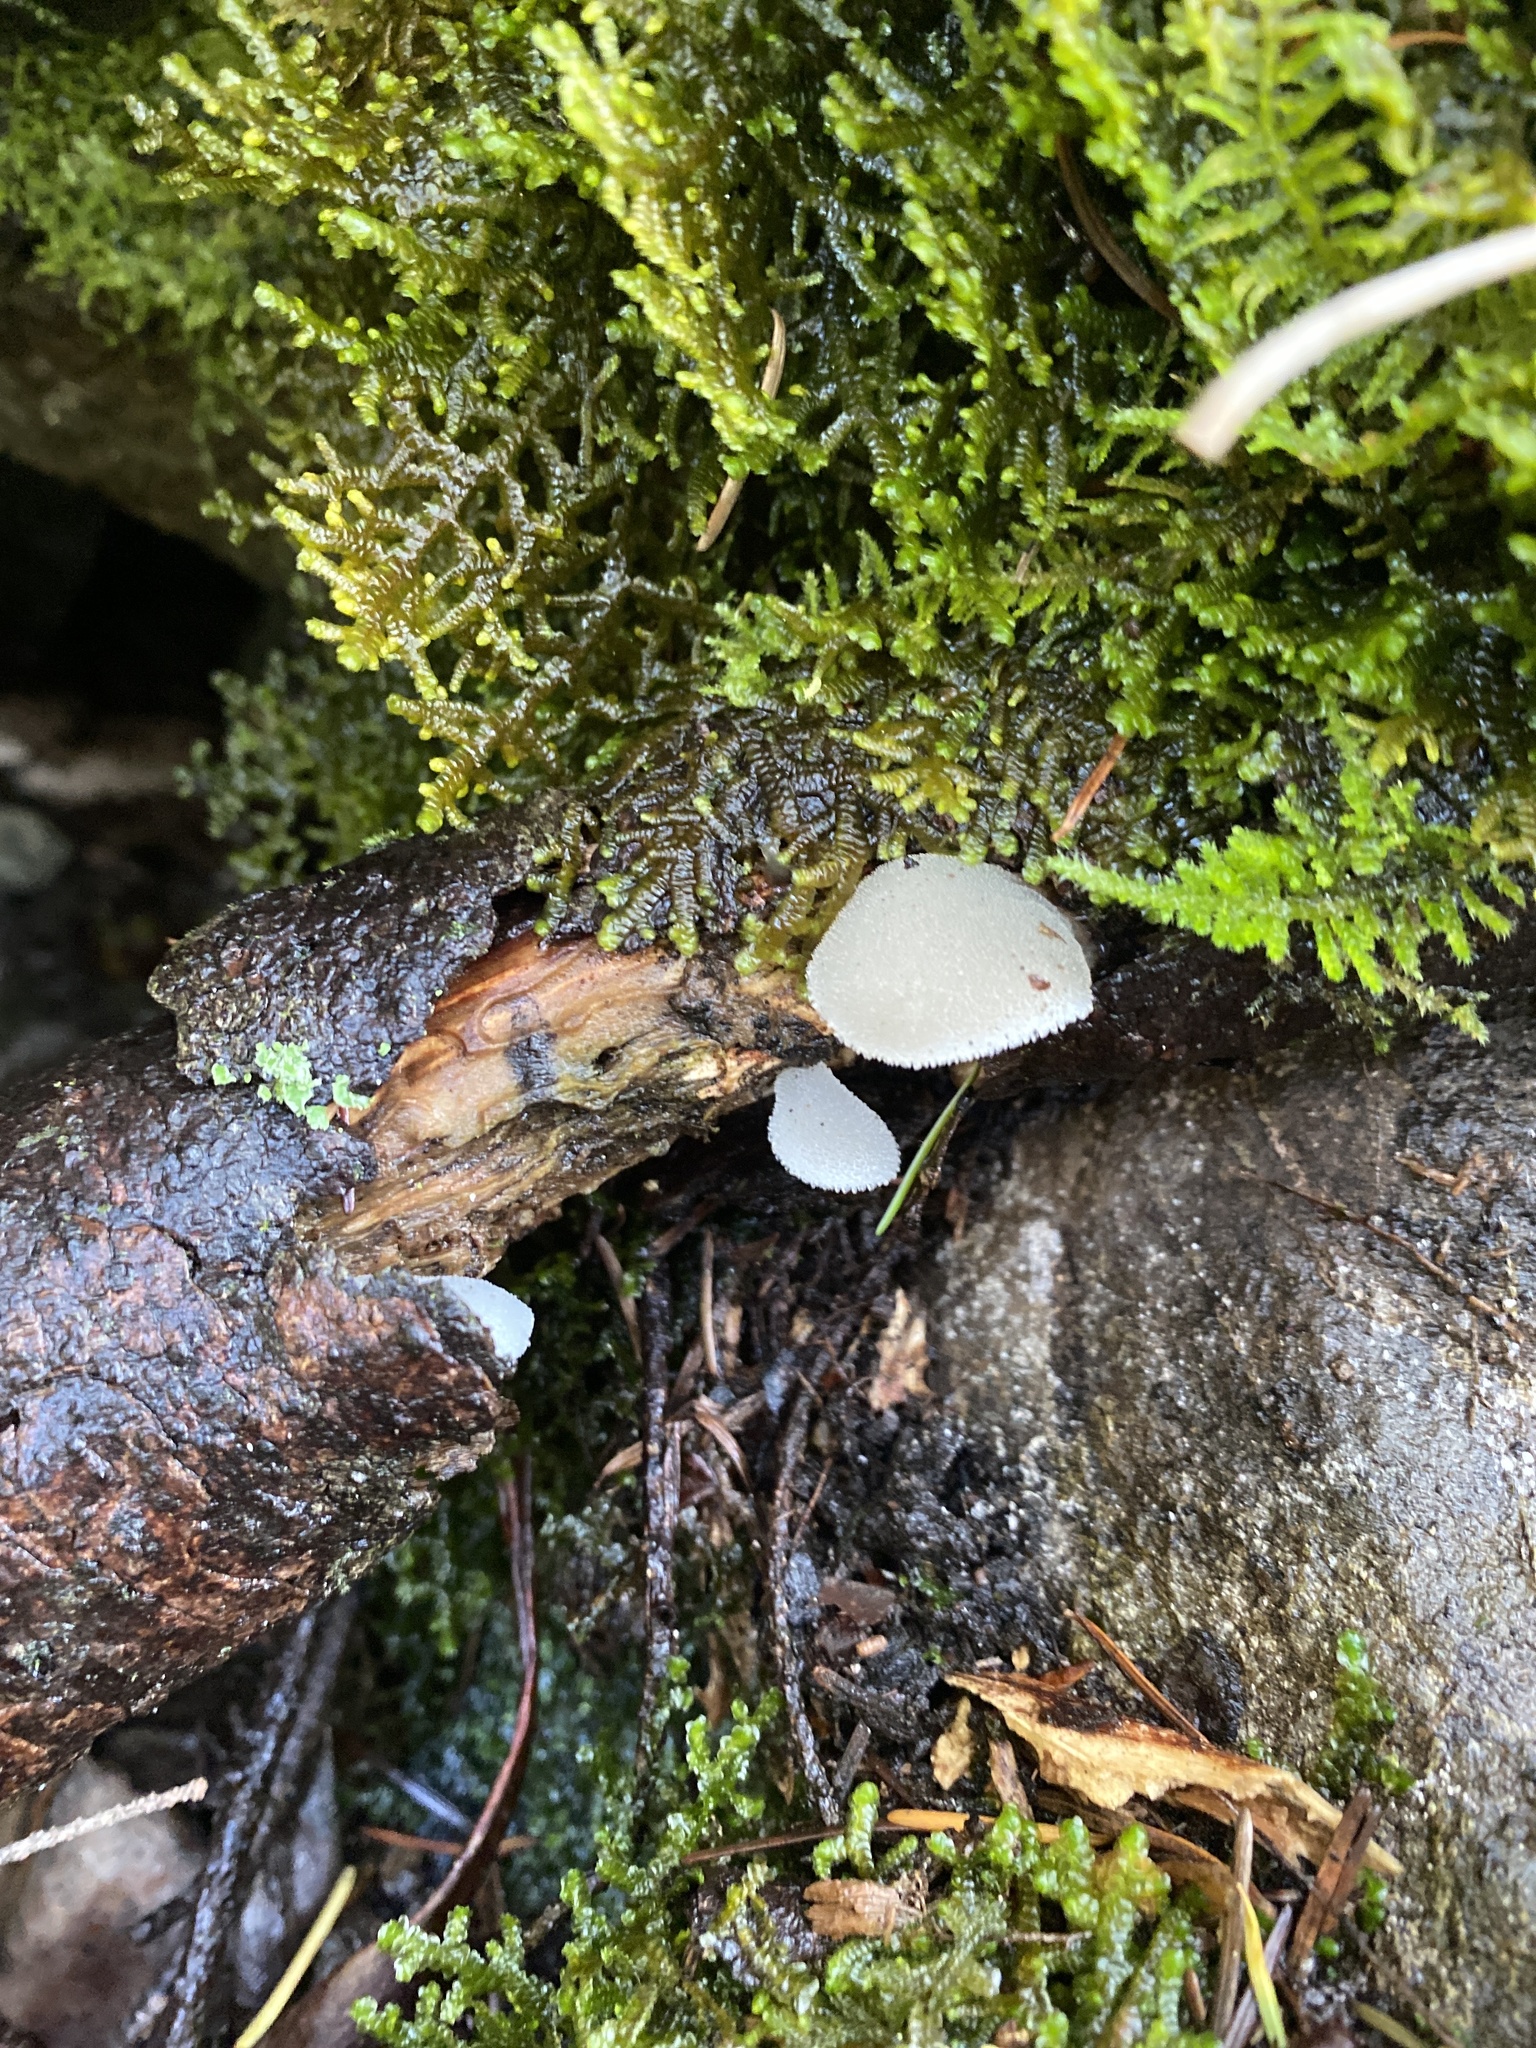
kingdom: Fungi
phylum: Basidiomycota
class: Agaricomycetes
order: Auriculariales
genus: Pseudohydnum
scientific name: Pseudohydnum gelatinosum
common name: Jelly tongue
